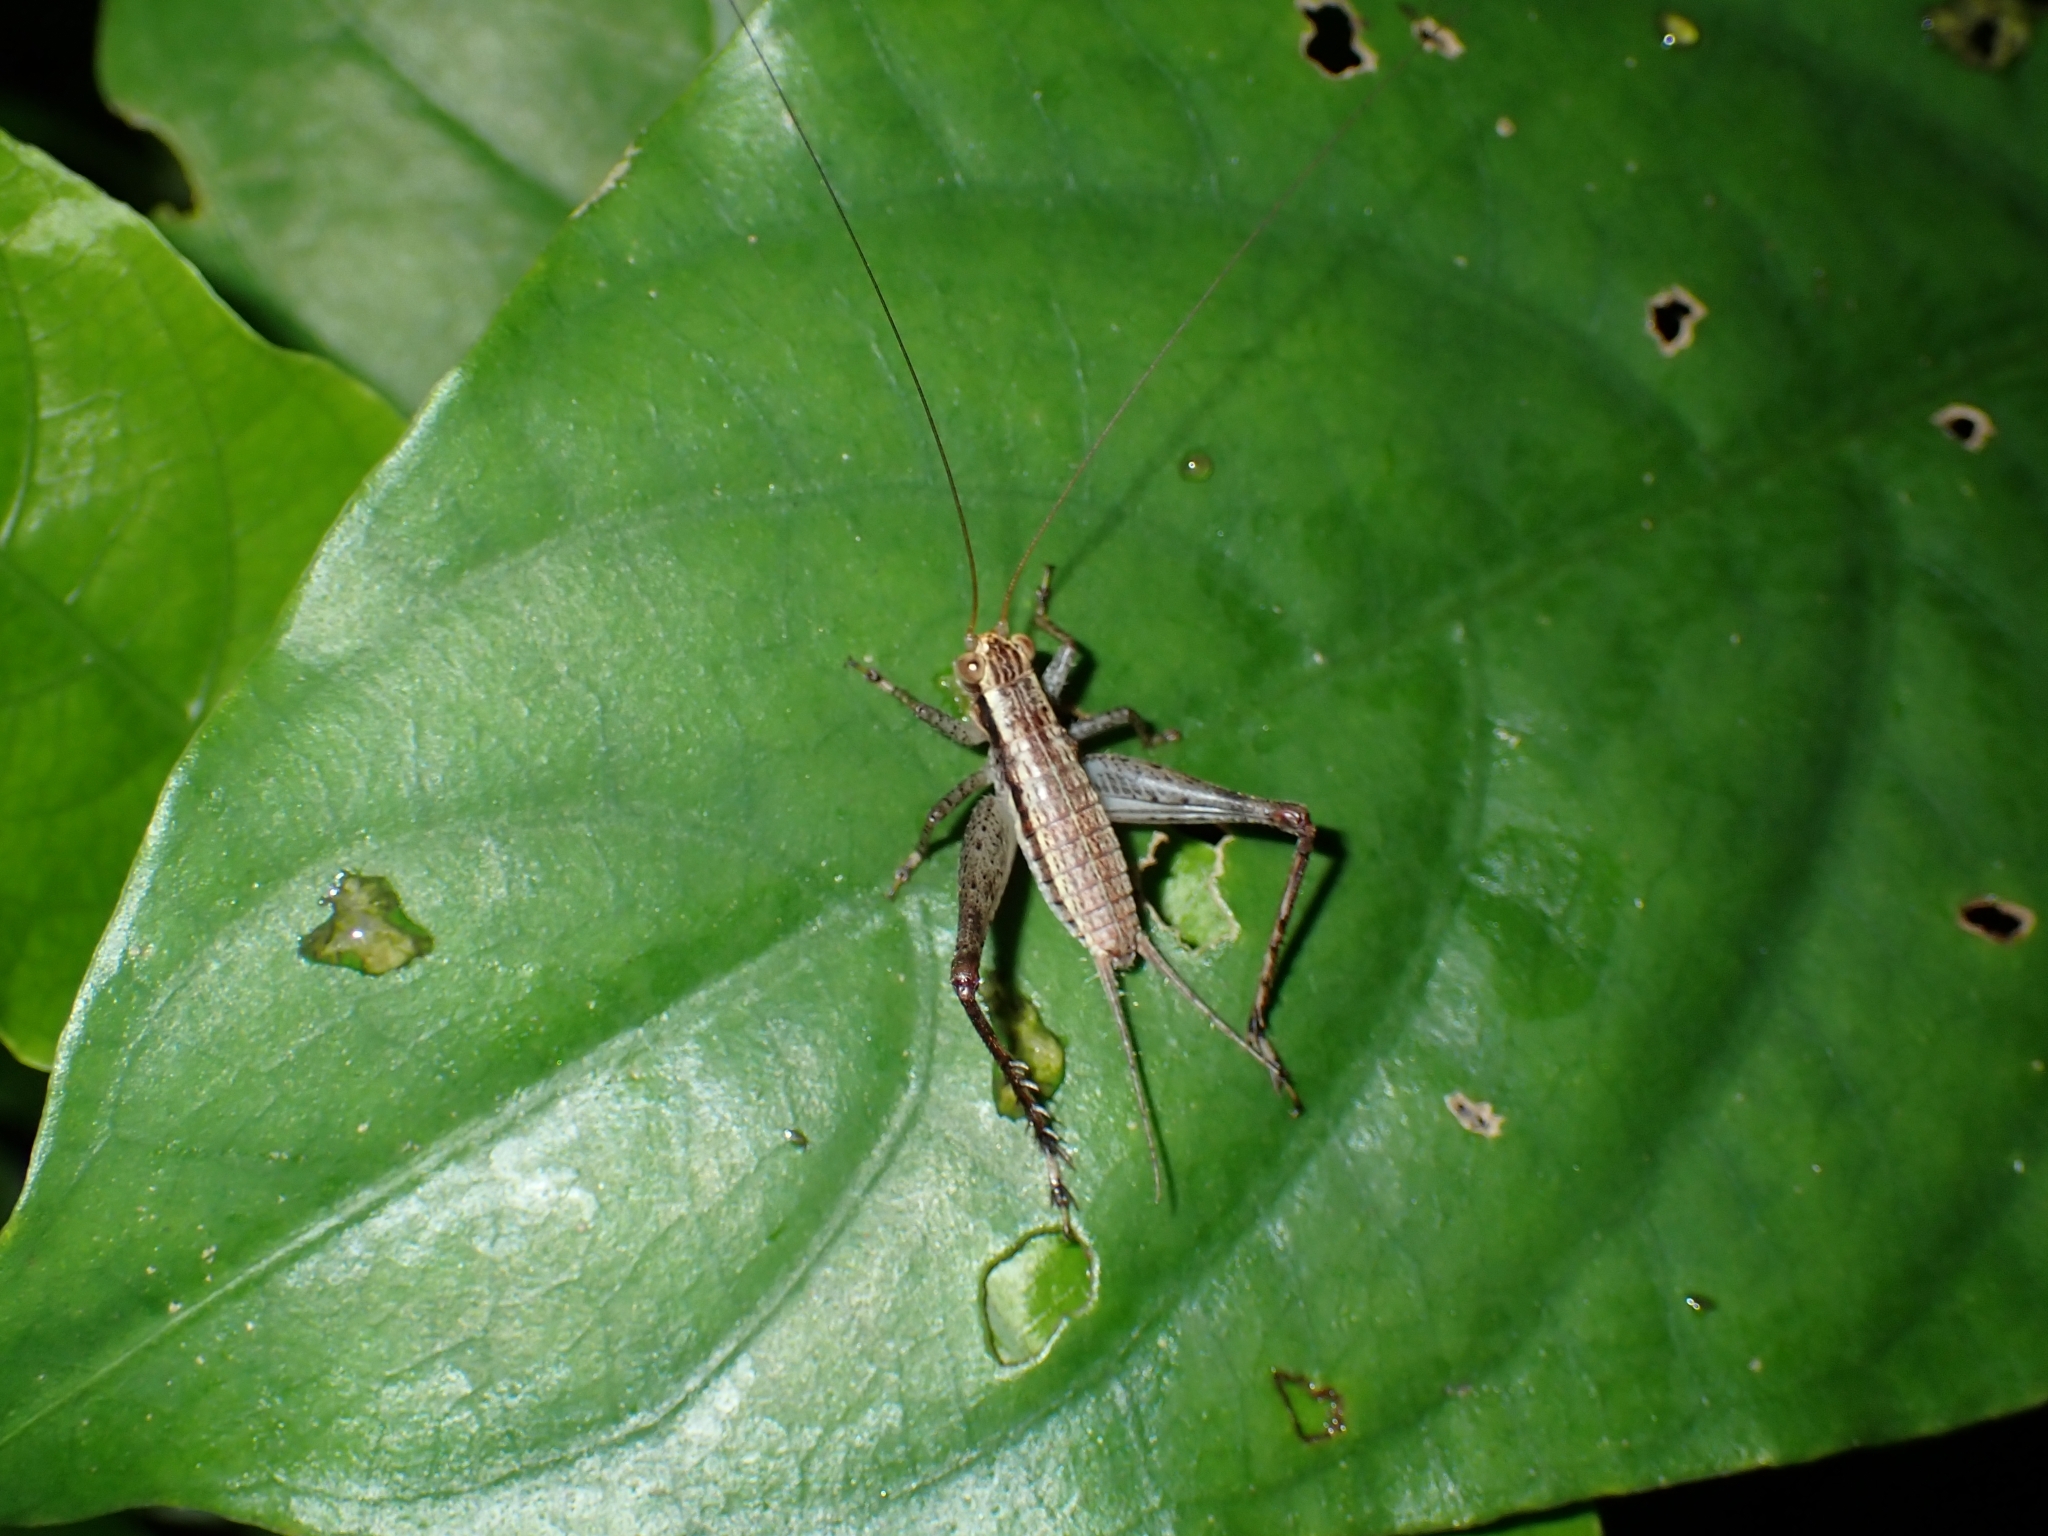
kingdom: Animalia
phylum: Arthropoda
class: Insecta
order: Orthoptera
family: Gryllidae
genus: Cardiodactylus
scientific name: Cardiodactylus novaeguineae
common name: Sad cricket
